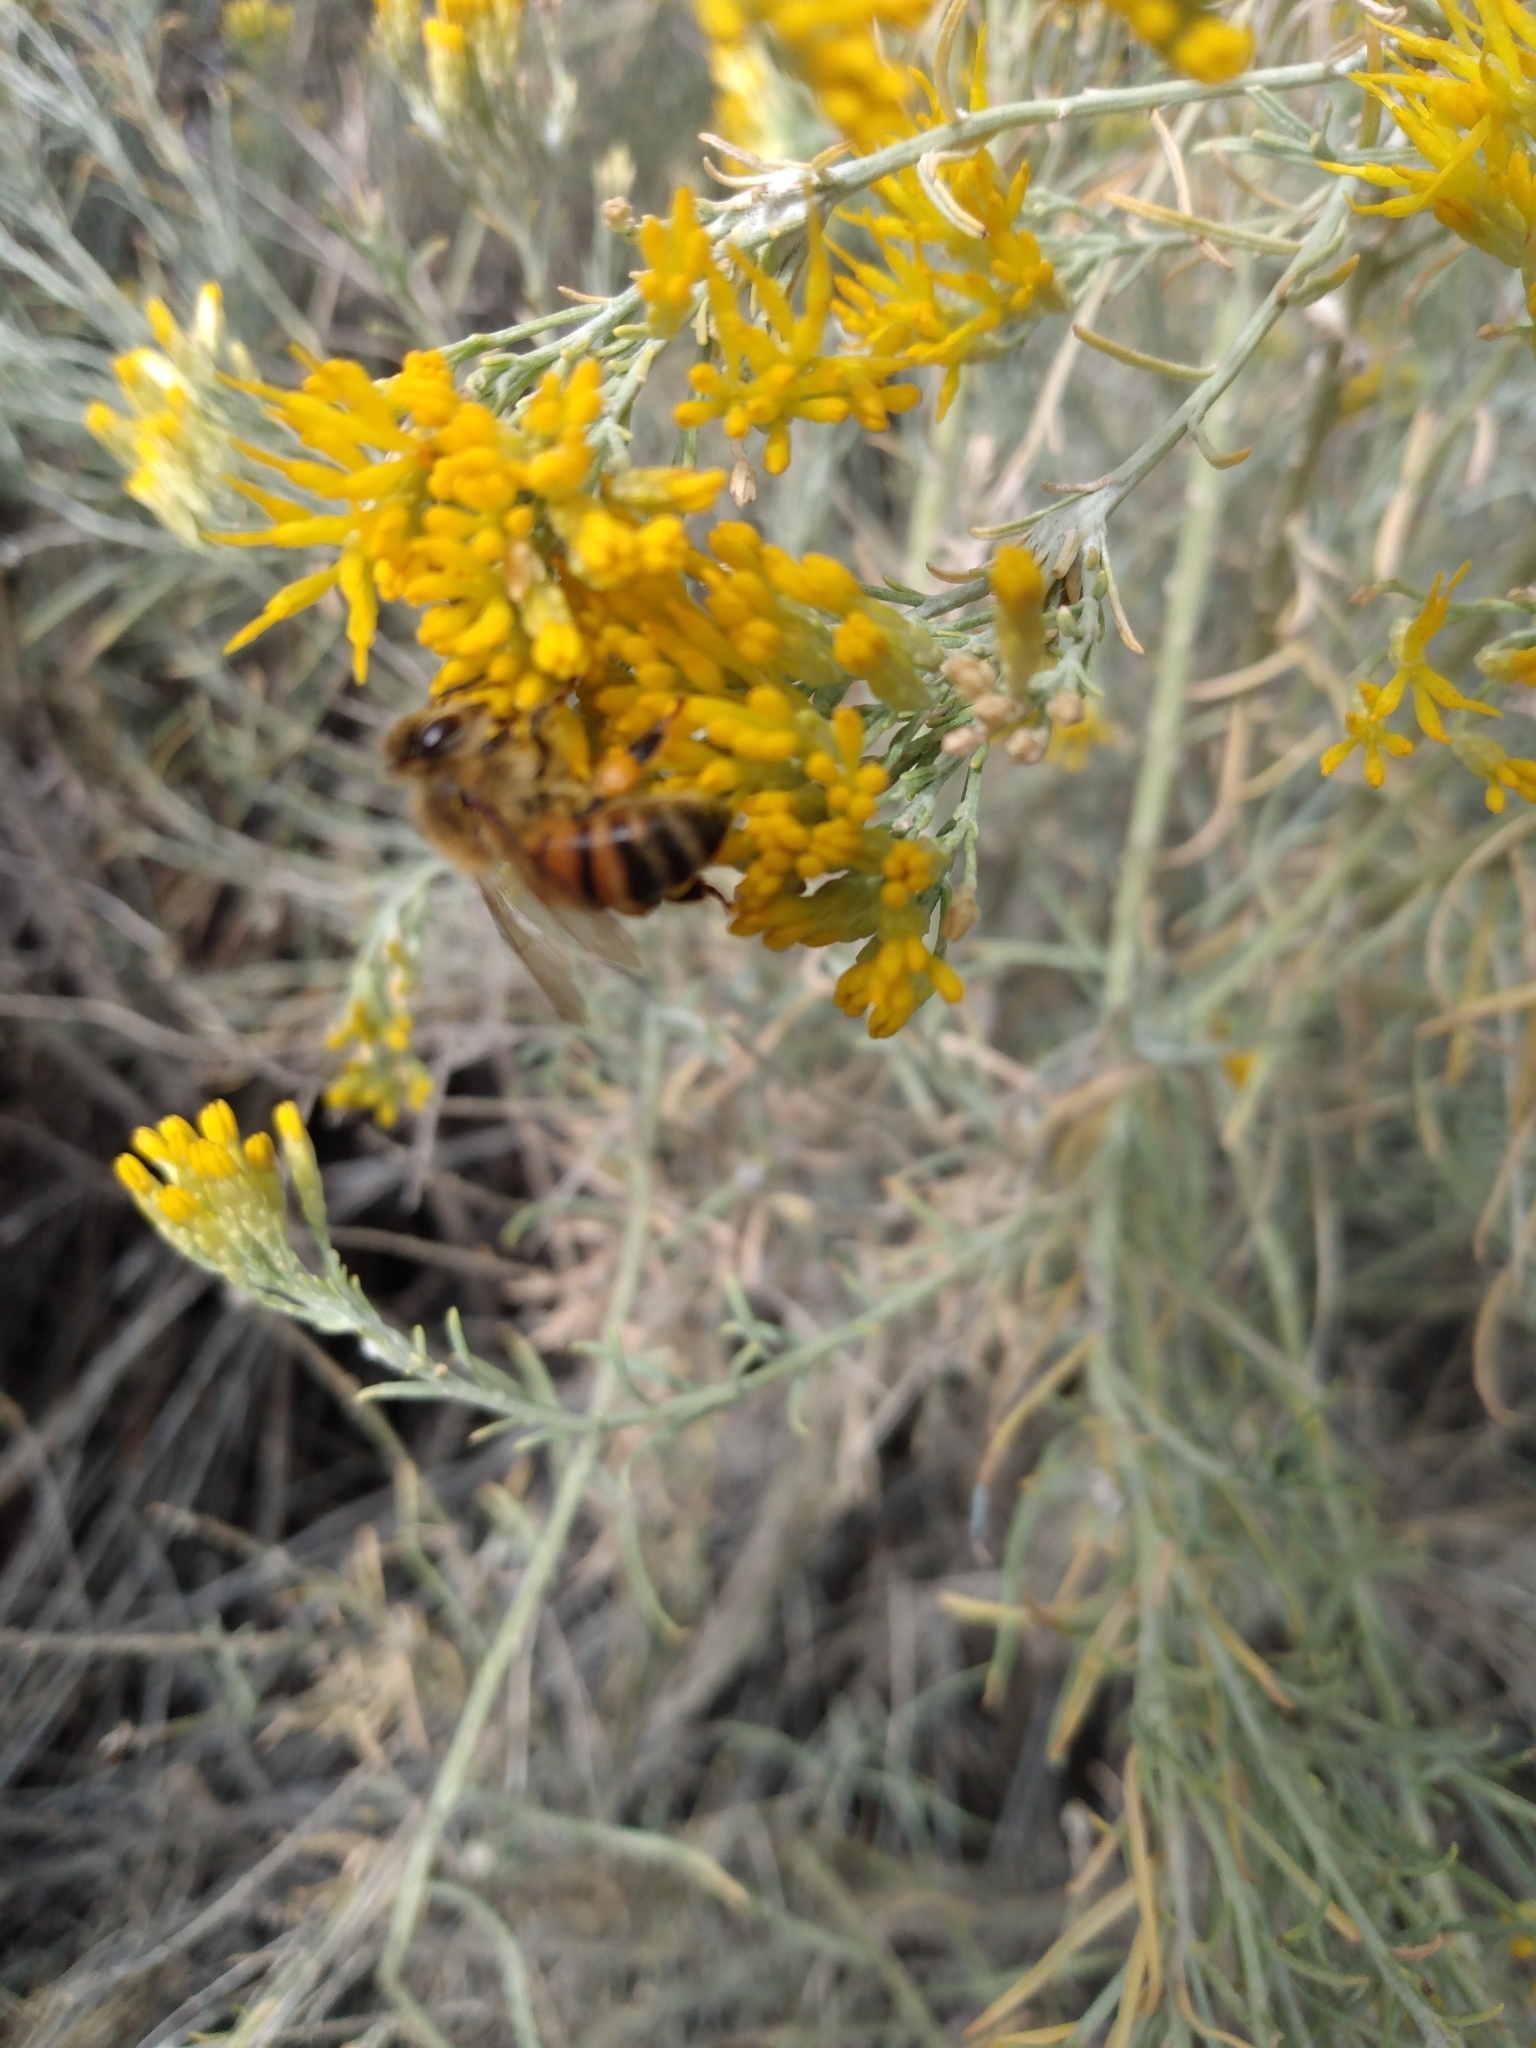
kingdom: Animalia
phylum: Arthropoda
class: Insecta
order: Hymenoptera
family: Apidae
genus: Apis
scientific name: Apis mellifera
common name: Honey bee
